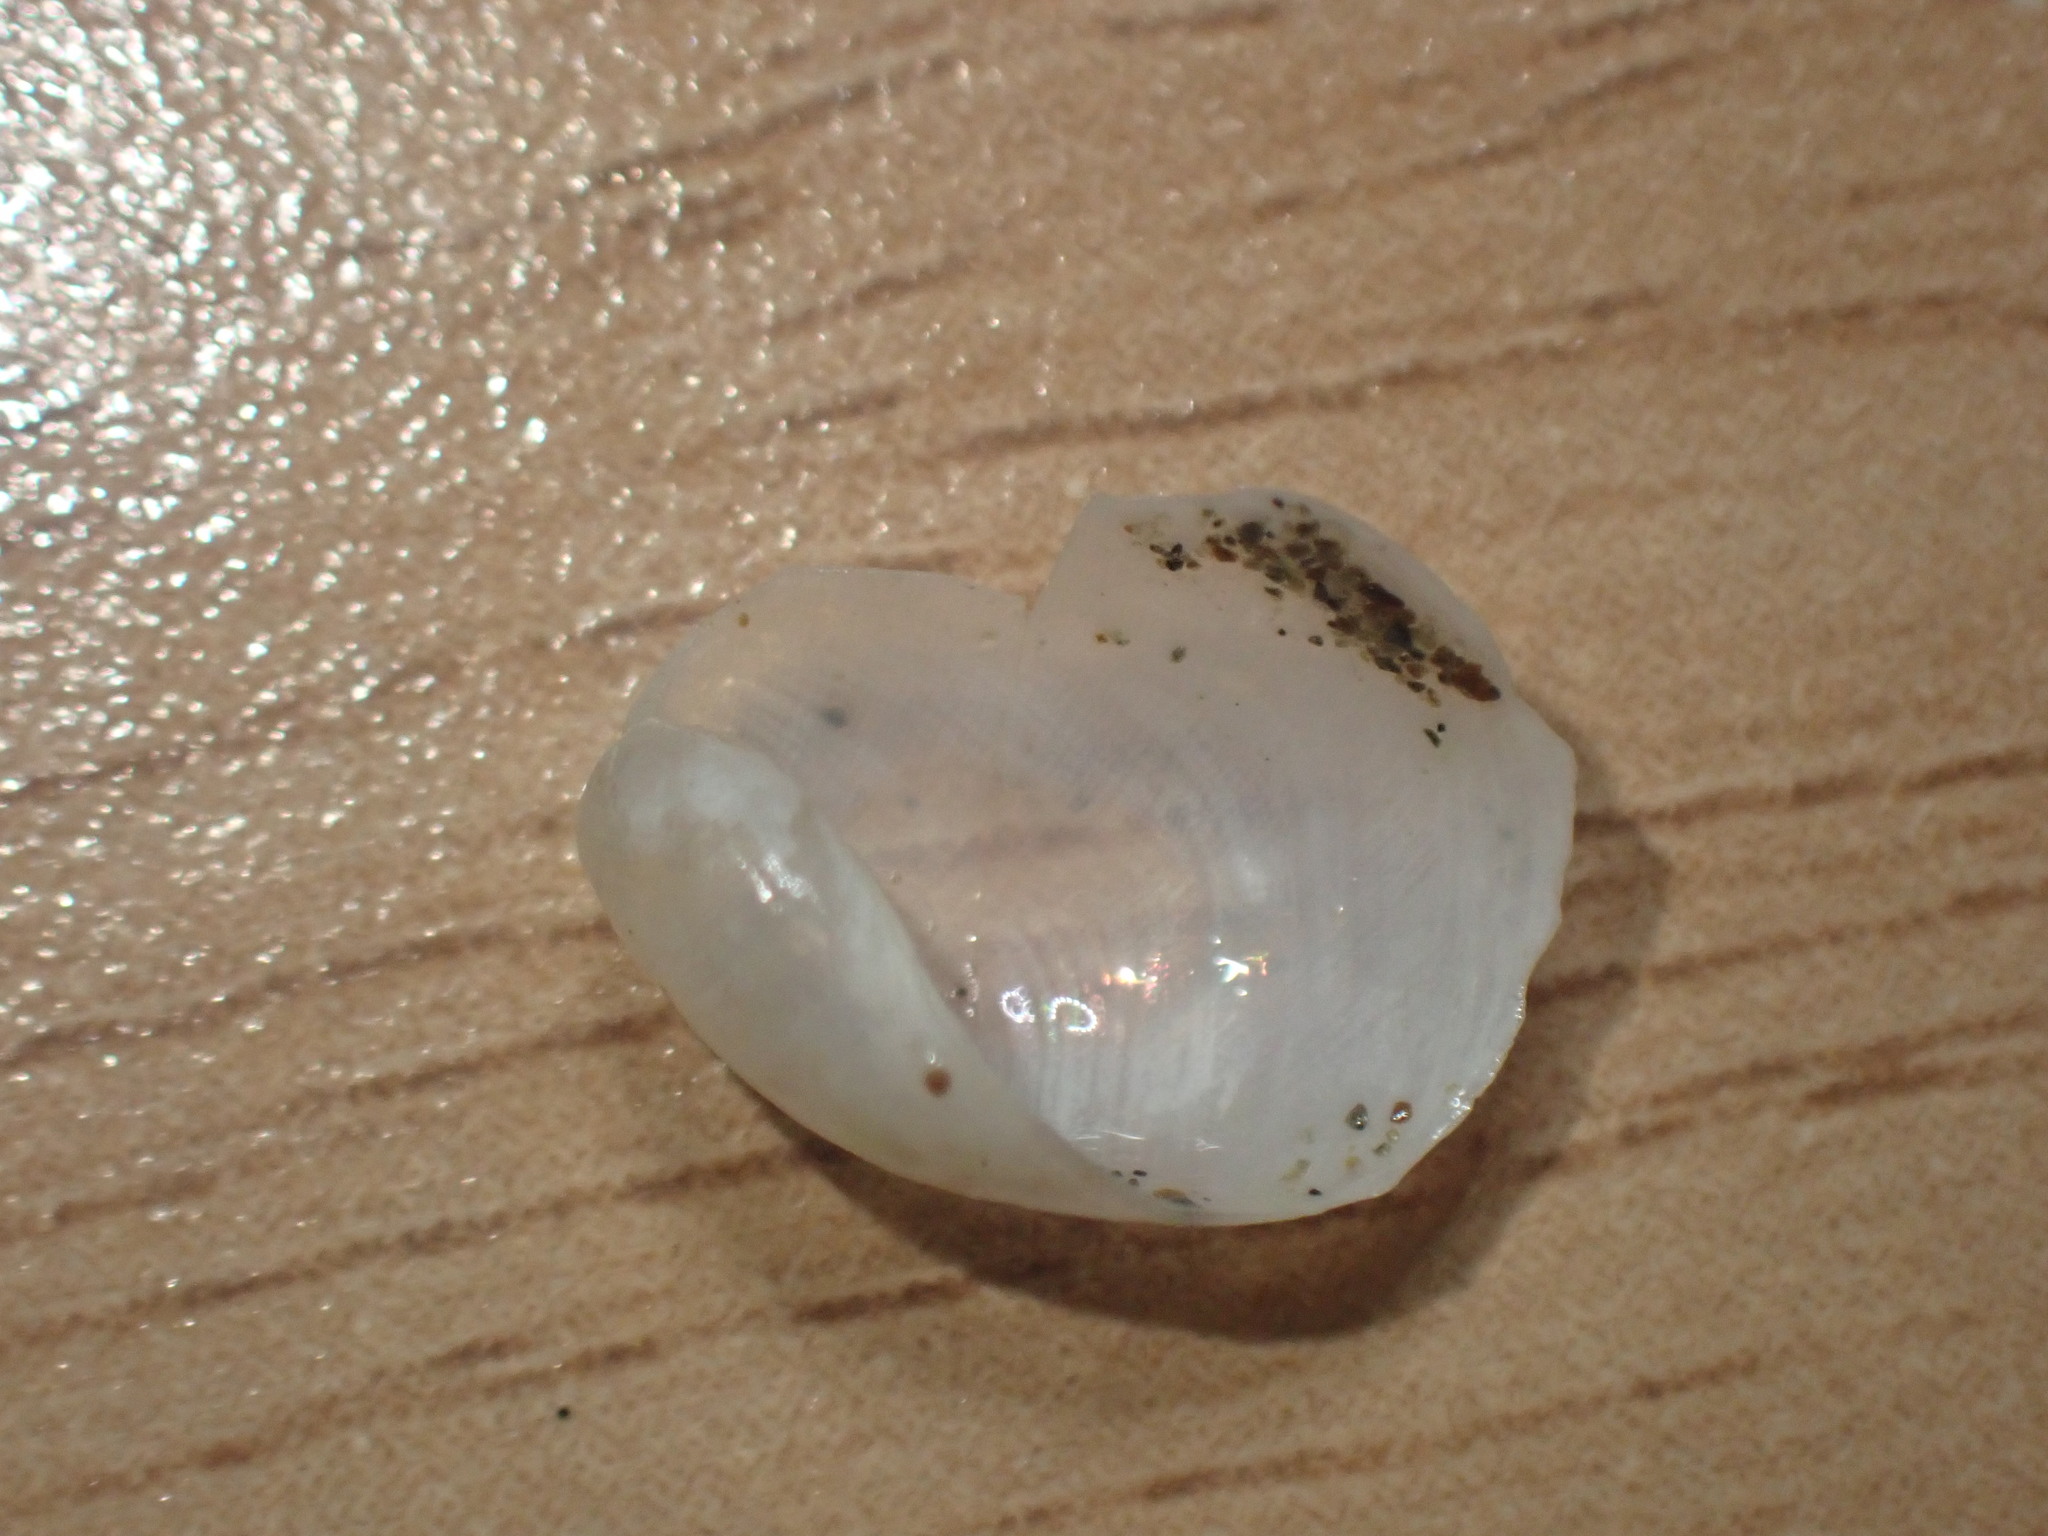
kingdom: Animalia
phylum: Mollusca
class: Gastropoda
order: Cephalaspidea
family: Philinidae
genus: Philine
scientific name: Philine auriformis
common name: Sea snail
